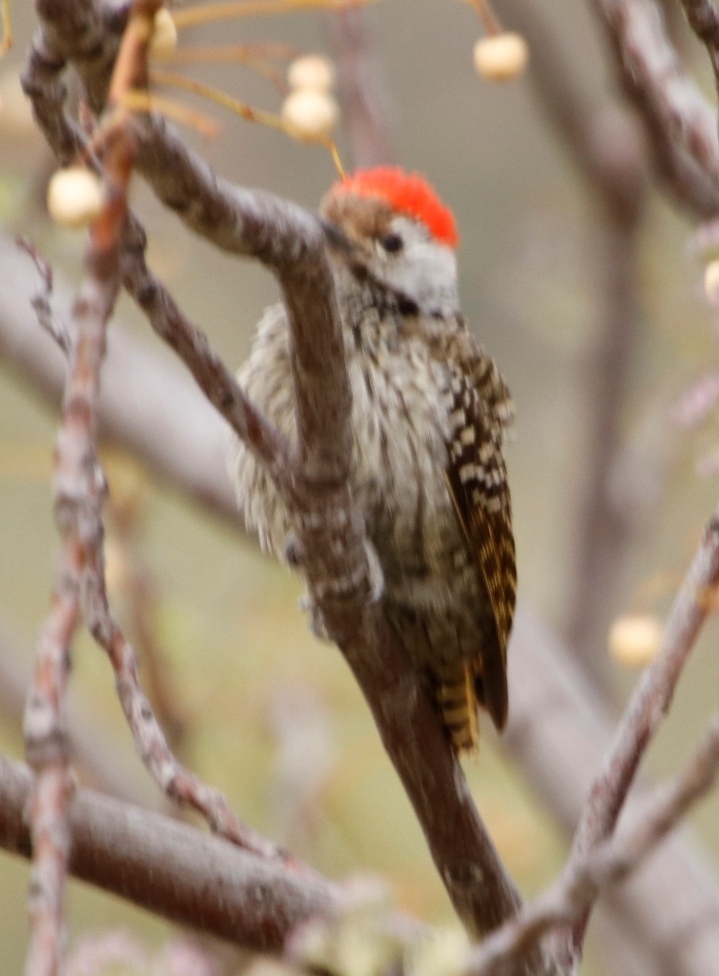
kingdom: Animalia
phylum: Chordata
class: Aves
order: Piciformes
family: Picidae
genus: Dendropicos
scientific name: Dendropicos fuscescens
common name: Cardinal woodpecker
